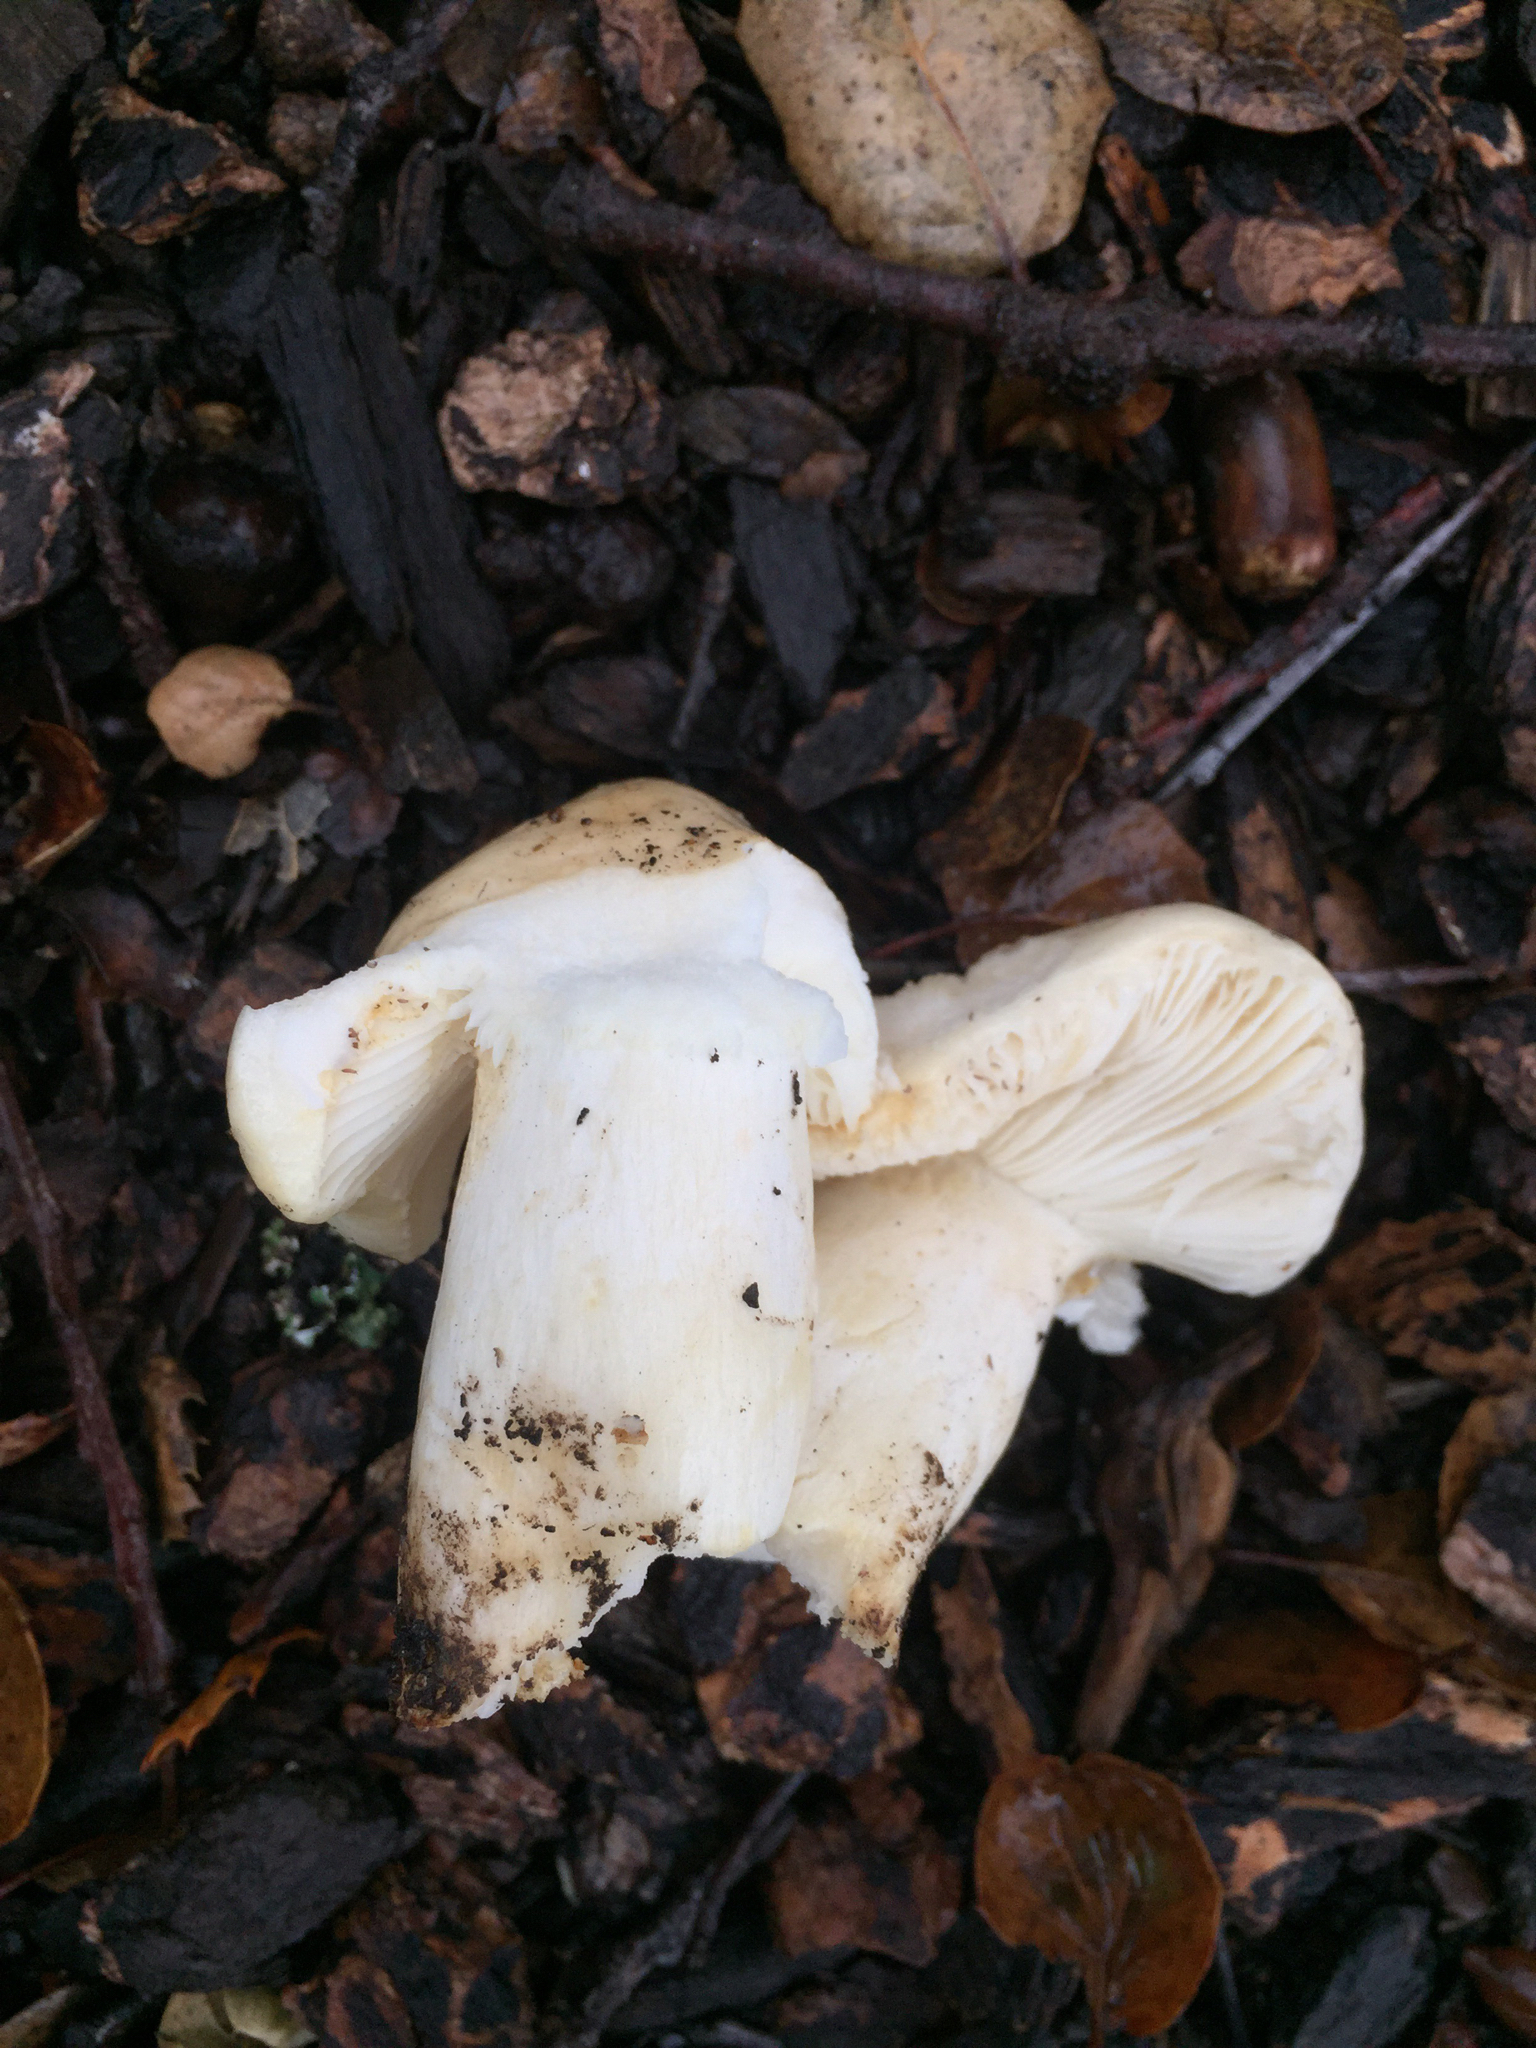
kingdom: Fungi
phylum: Basidiomycota
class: Agaricomycetes
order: Russulales
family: Russulaceae
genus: Lactarius
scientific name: Lactarius alnicola
